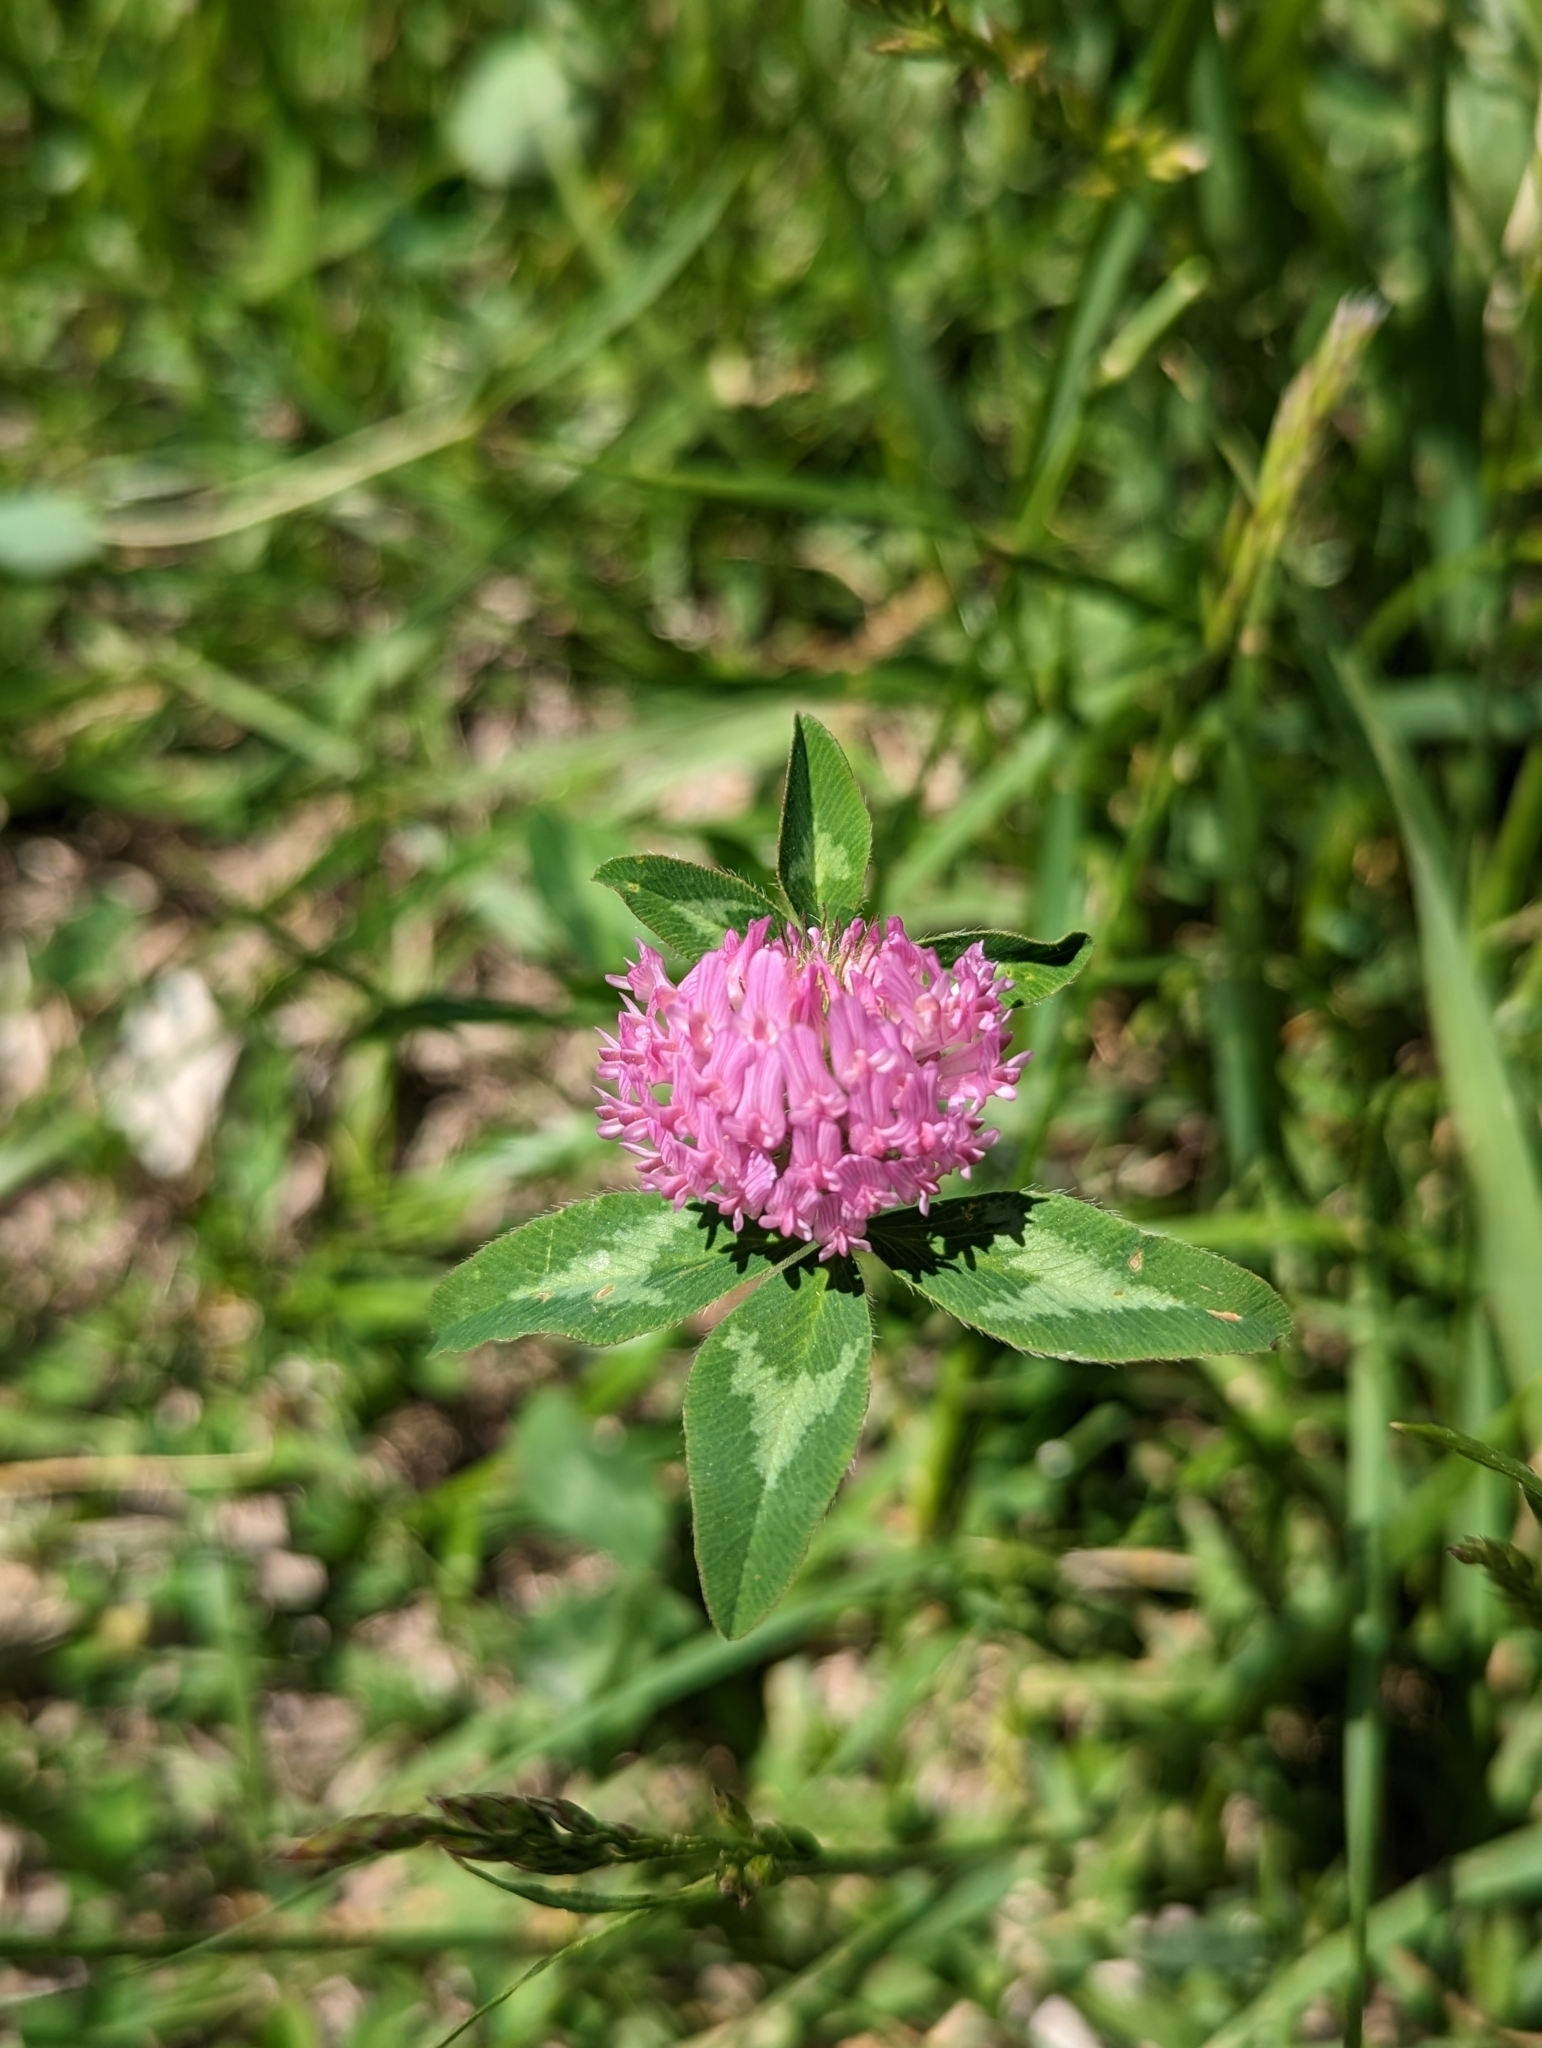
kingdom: Plantae
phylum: Tracheophyta
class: Magnoliopsida
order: Fabales
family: Fabaceae
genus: Trifolium
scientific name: Trifolium pratense
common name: Red clover
